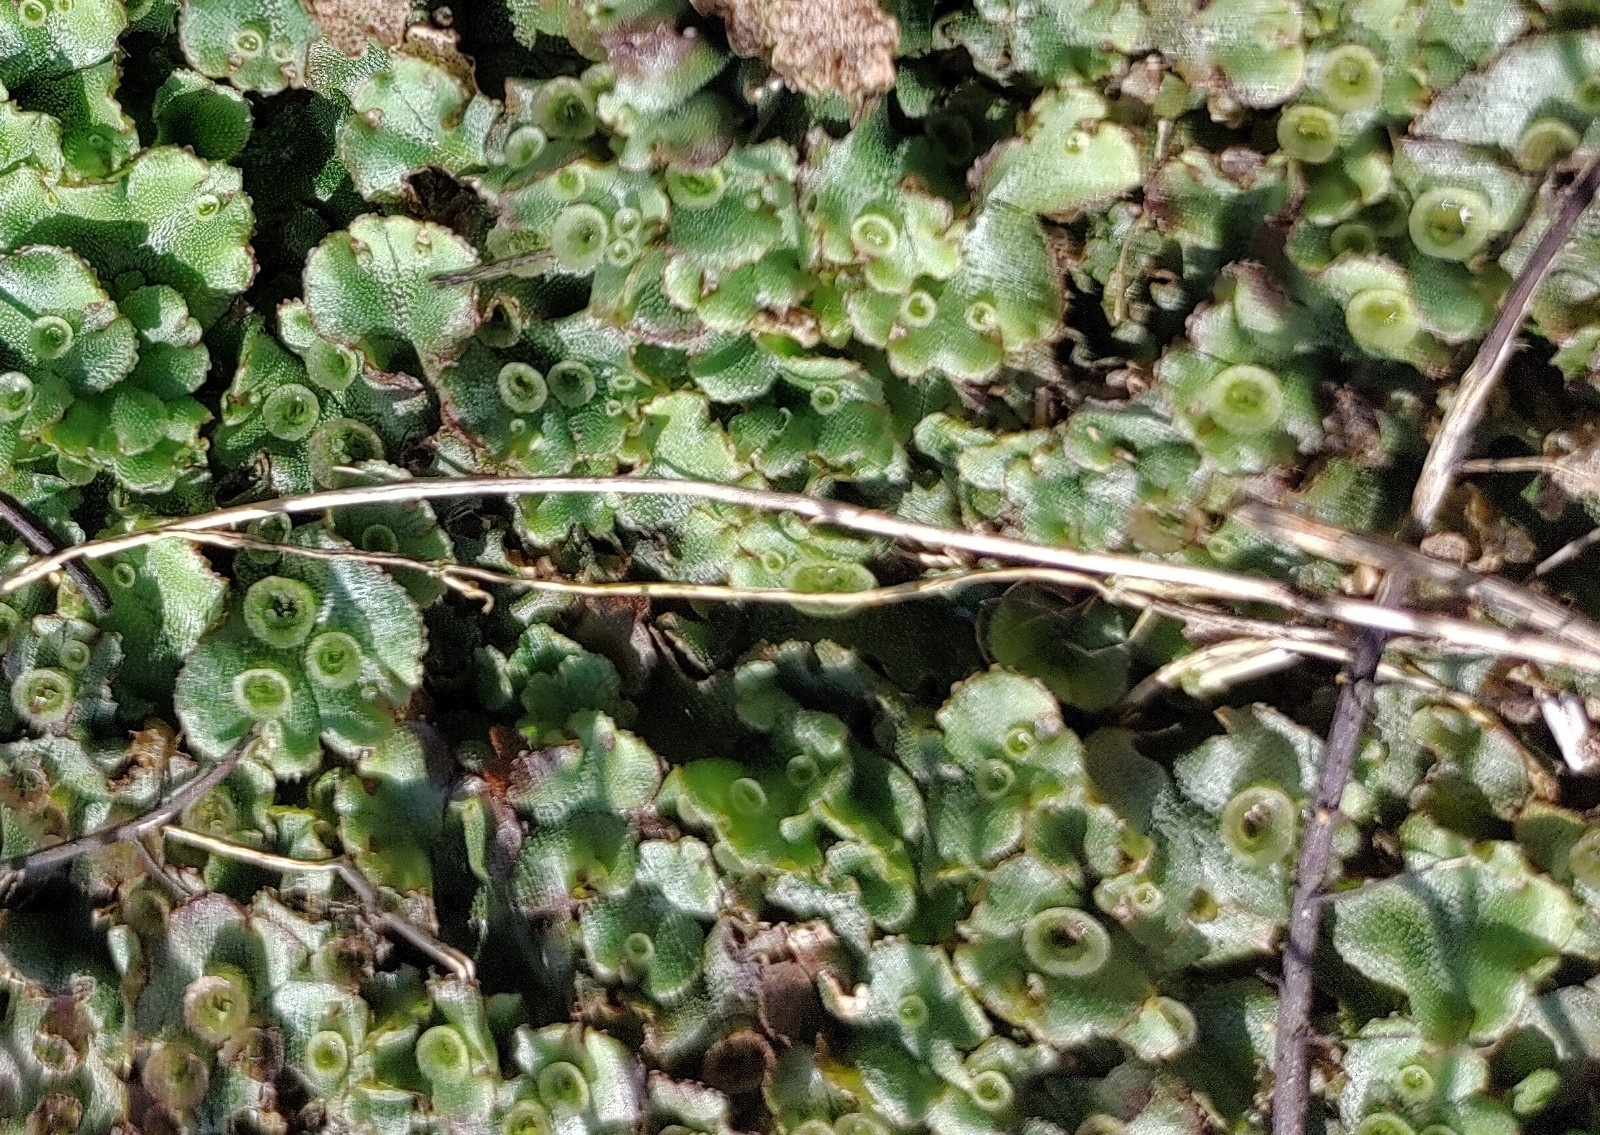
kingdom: Plantae
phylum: Marchantiophyta
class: Marchantiopsida
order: Marchantiales
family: Marchantiaceae
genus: Marchantia
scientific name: Marchantia polymorpha
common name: Common liverwort
